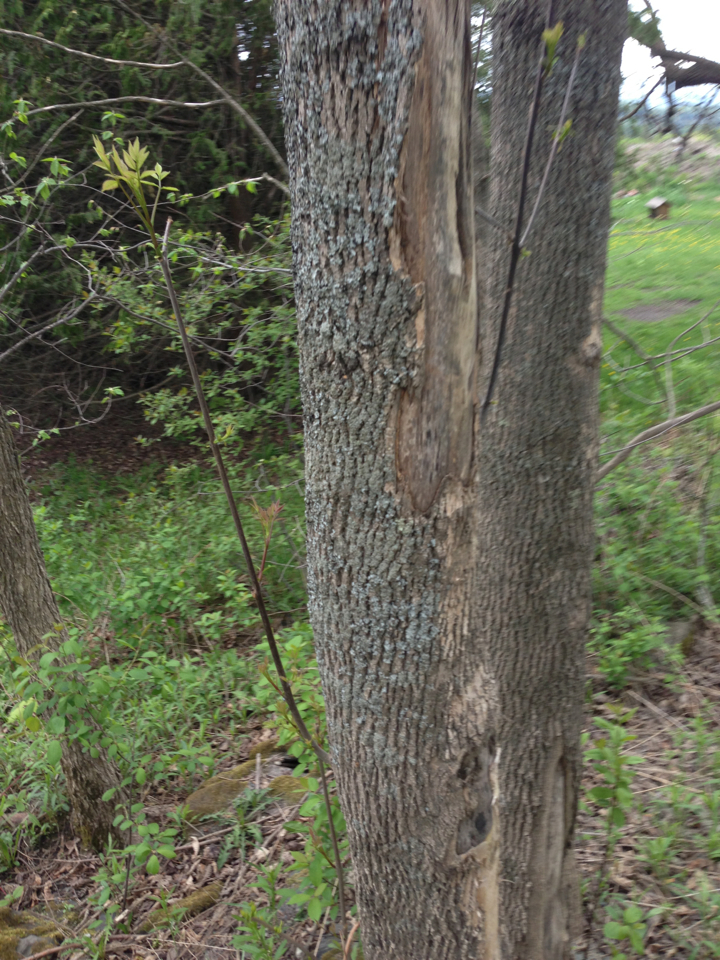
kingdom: Plantae
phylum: Tracheophyta
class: Magnoliopsida
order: Lamiales
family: Oleaceae
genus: Fraxinus
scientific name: Fraxinus americana
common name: White ash
